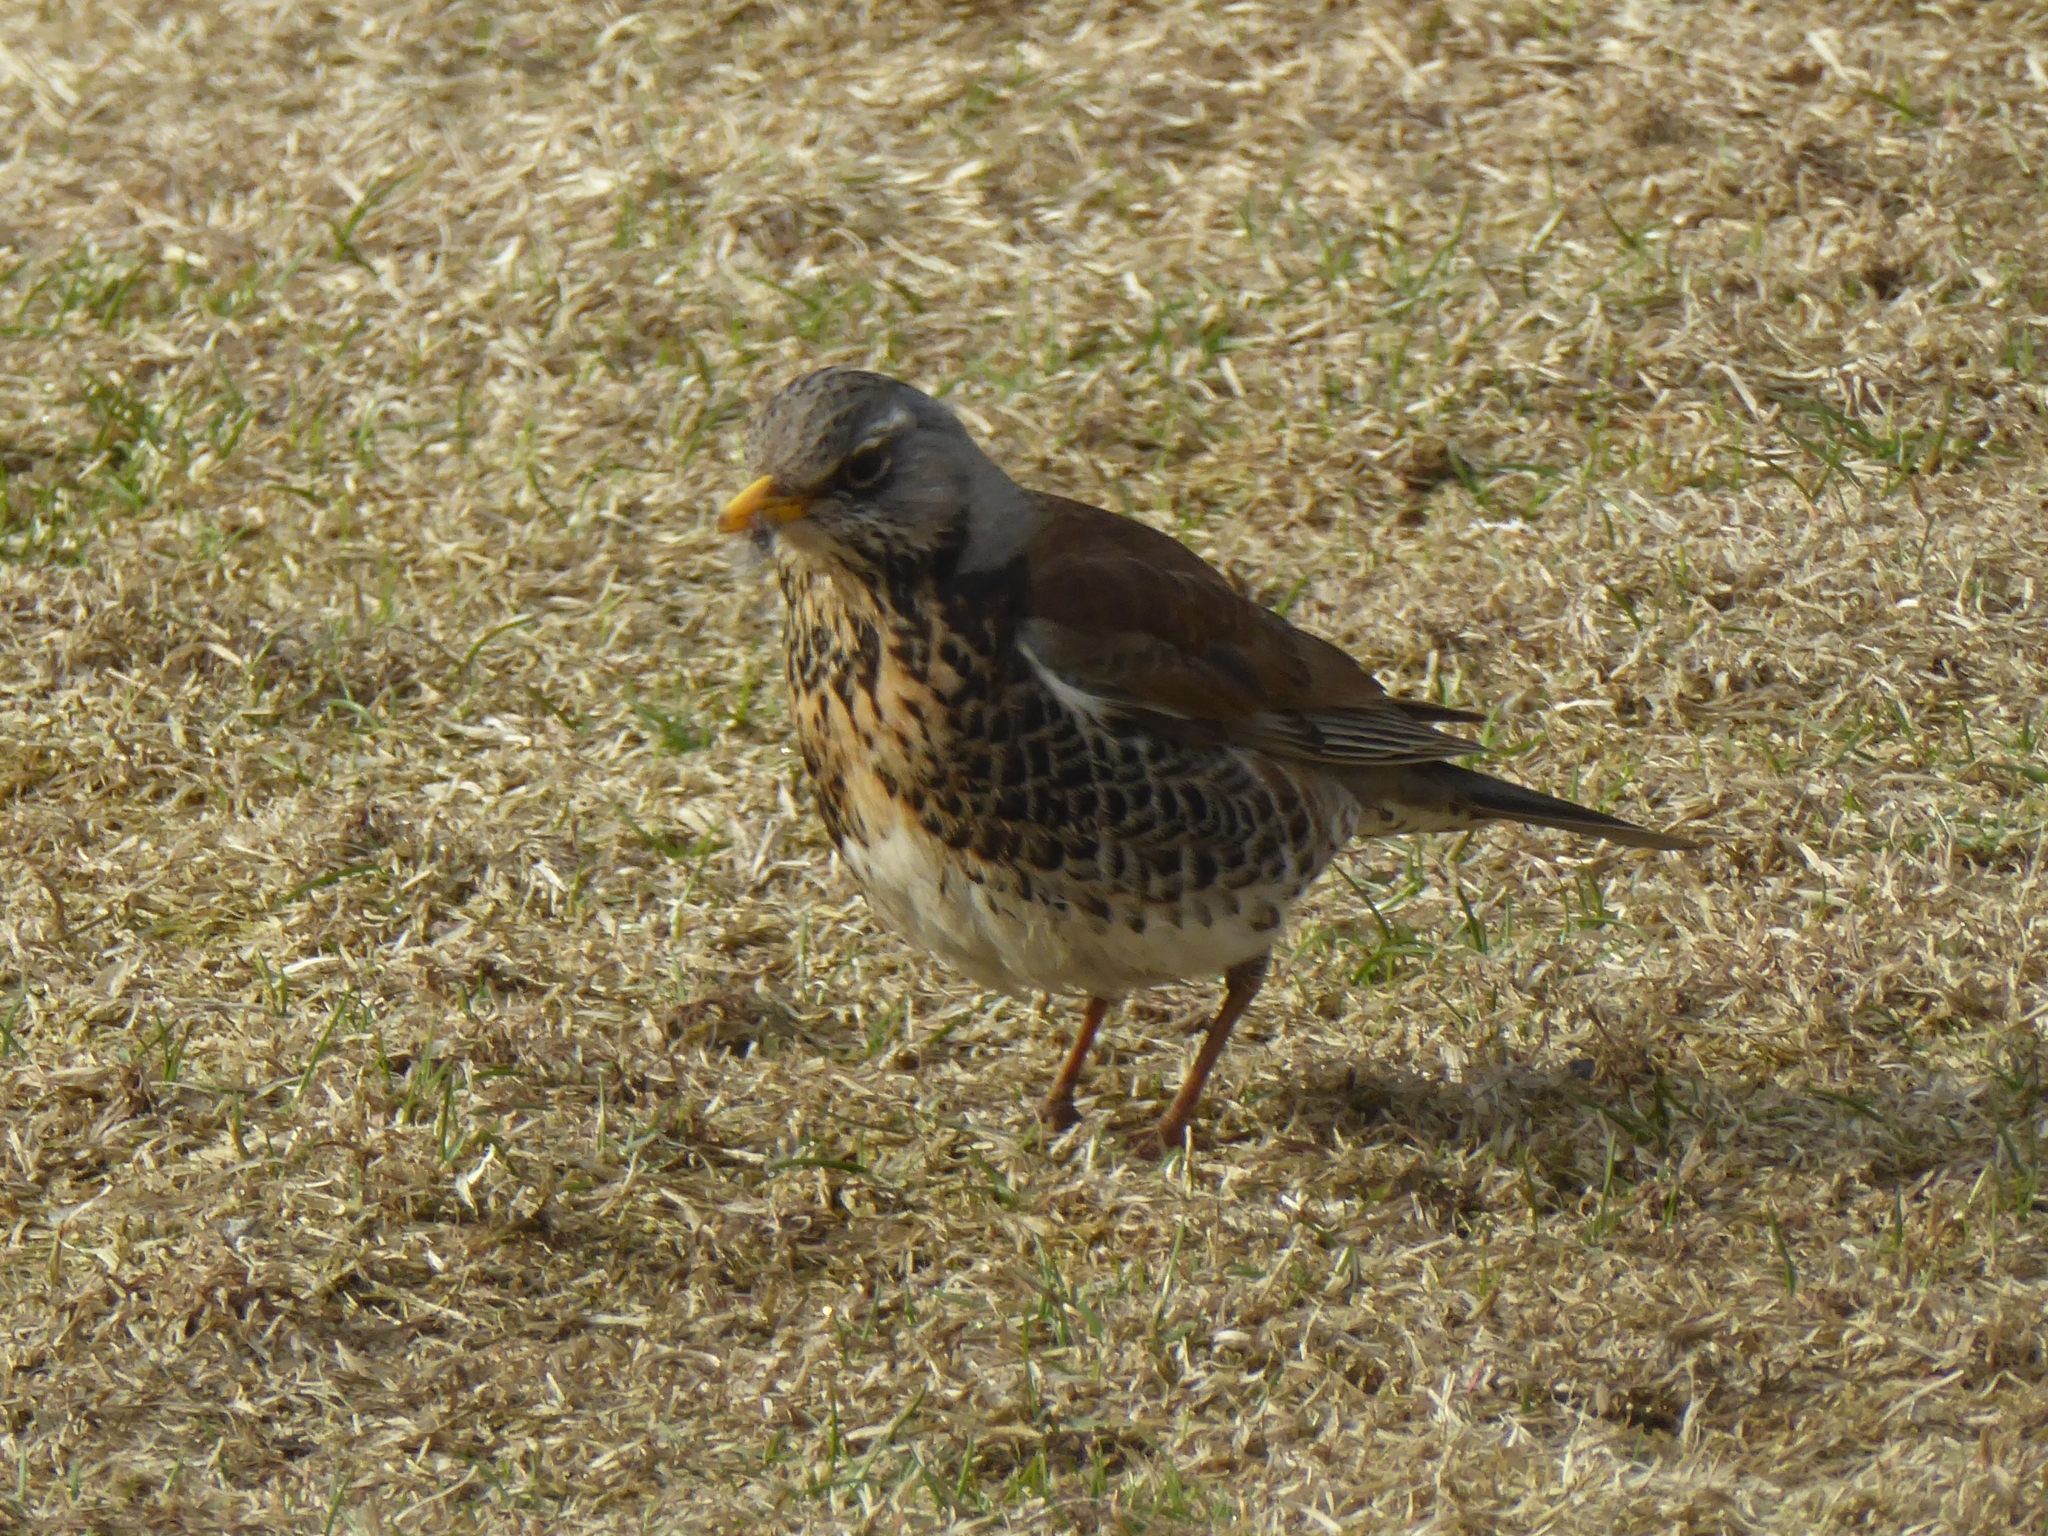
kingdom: Animalia
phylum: Chordata
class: Aves
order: Passeriformes
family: Turdidae
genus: Turdus
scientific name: Turdus pilaris
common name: Fieldfare
